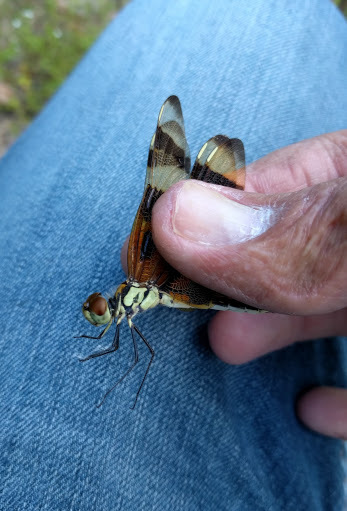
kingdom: Animalia
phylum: Arthropoda
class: Insecta
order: Odonata
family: Libellulidae
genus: Celithemis
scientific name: Celithemis eponina
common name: Halloween pennant
